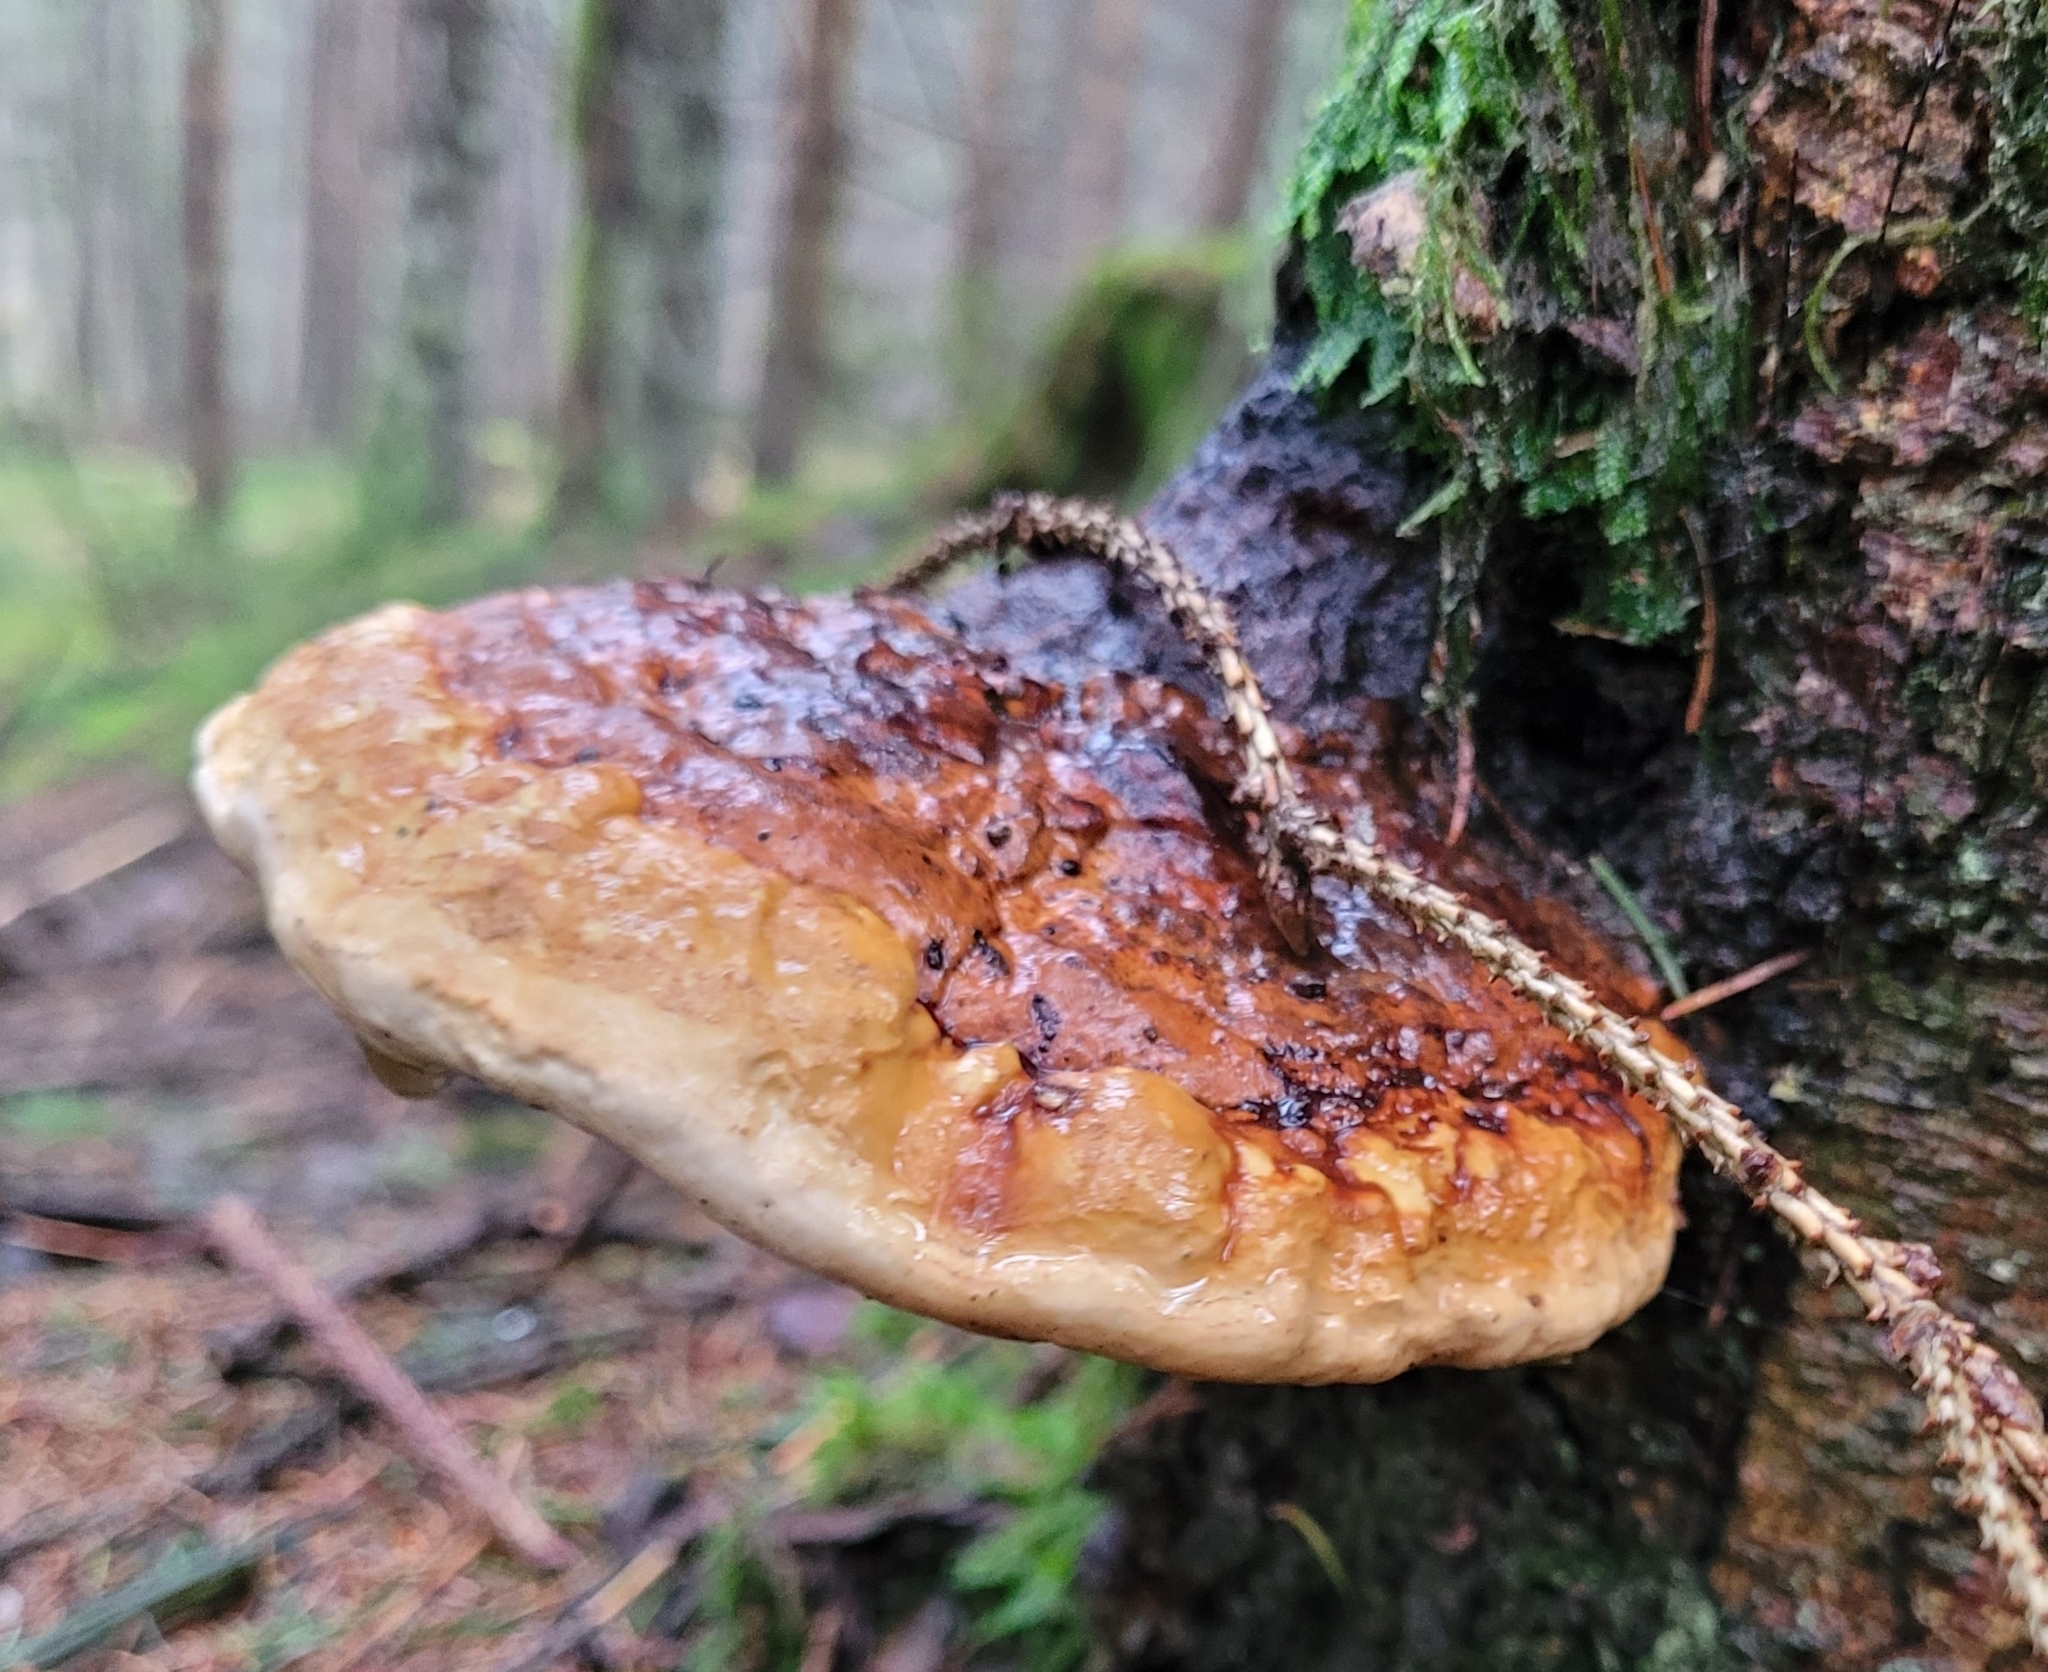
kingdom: Fungi
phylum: Basidiomycota
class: Agaricomycetes
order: Polyporales
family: Fomitopsidaceae
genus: Fomitopsis
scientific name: Fomitopsis pinicola
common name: Red-belted bracket
